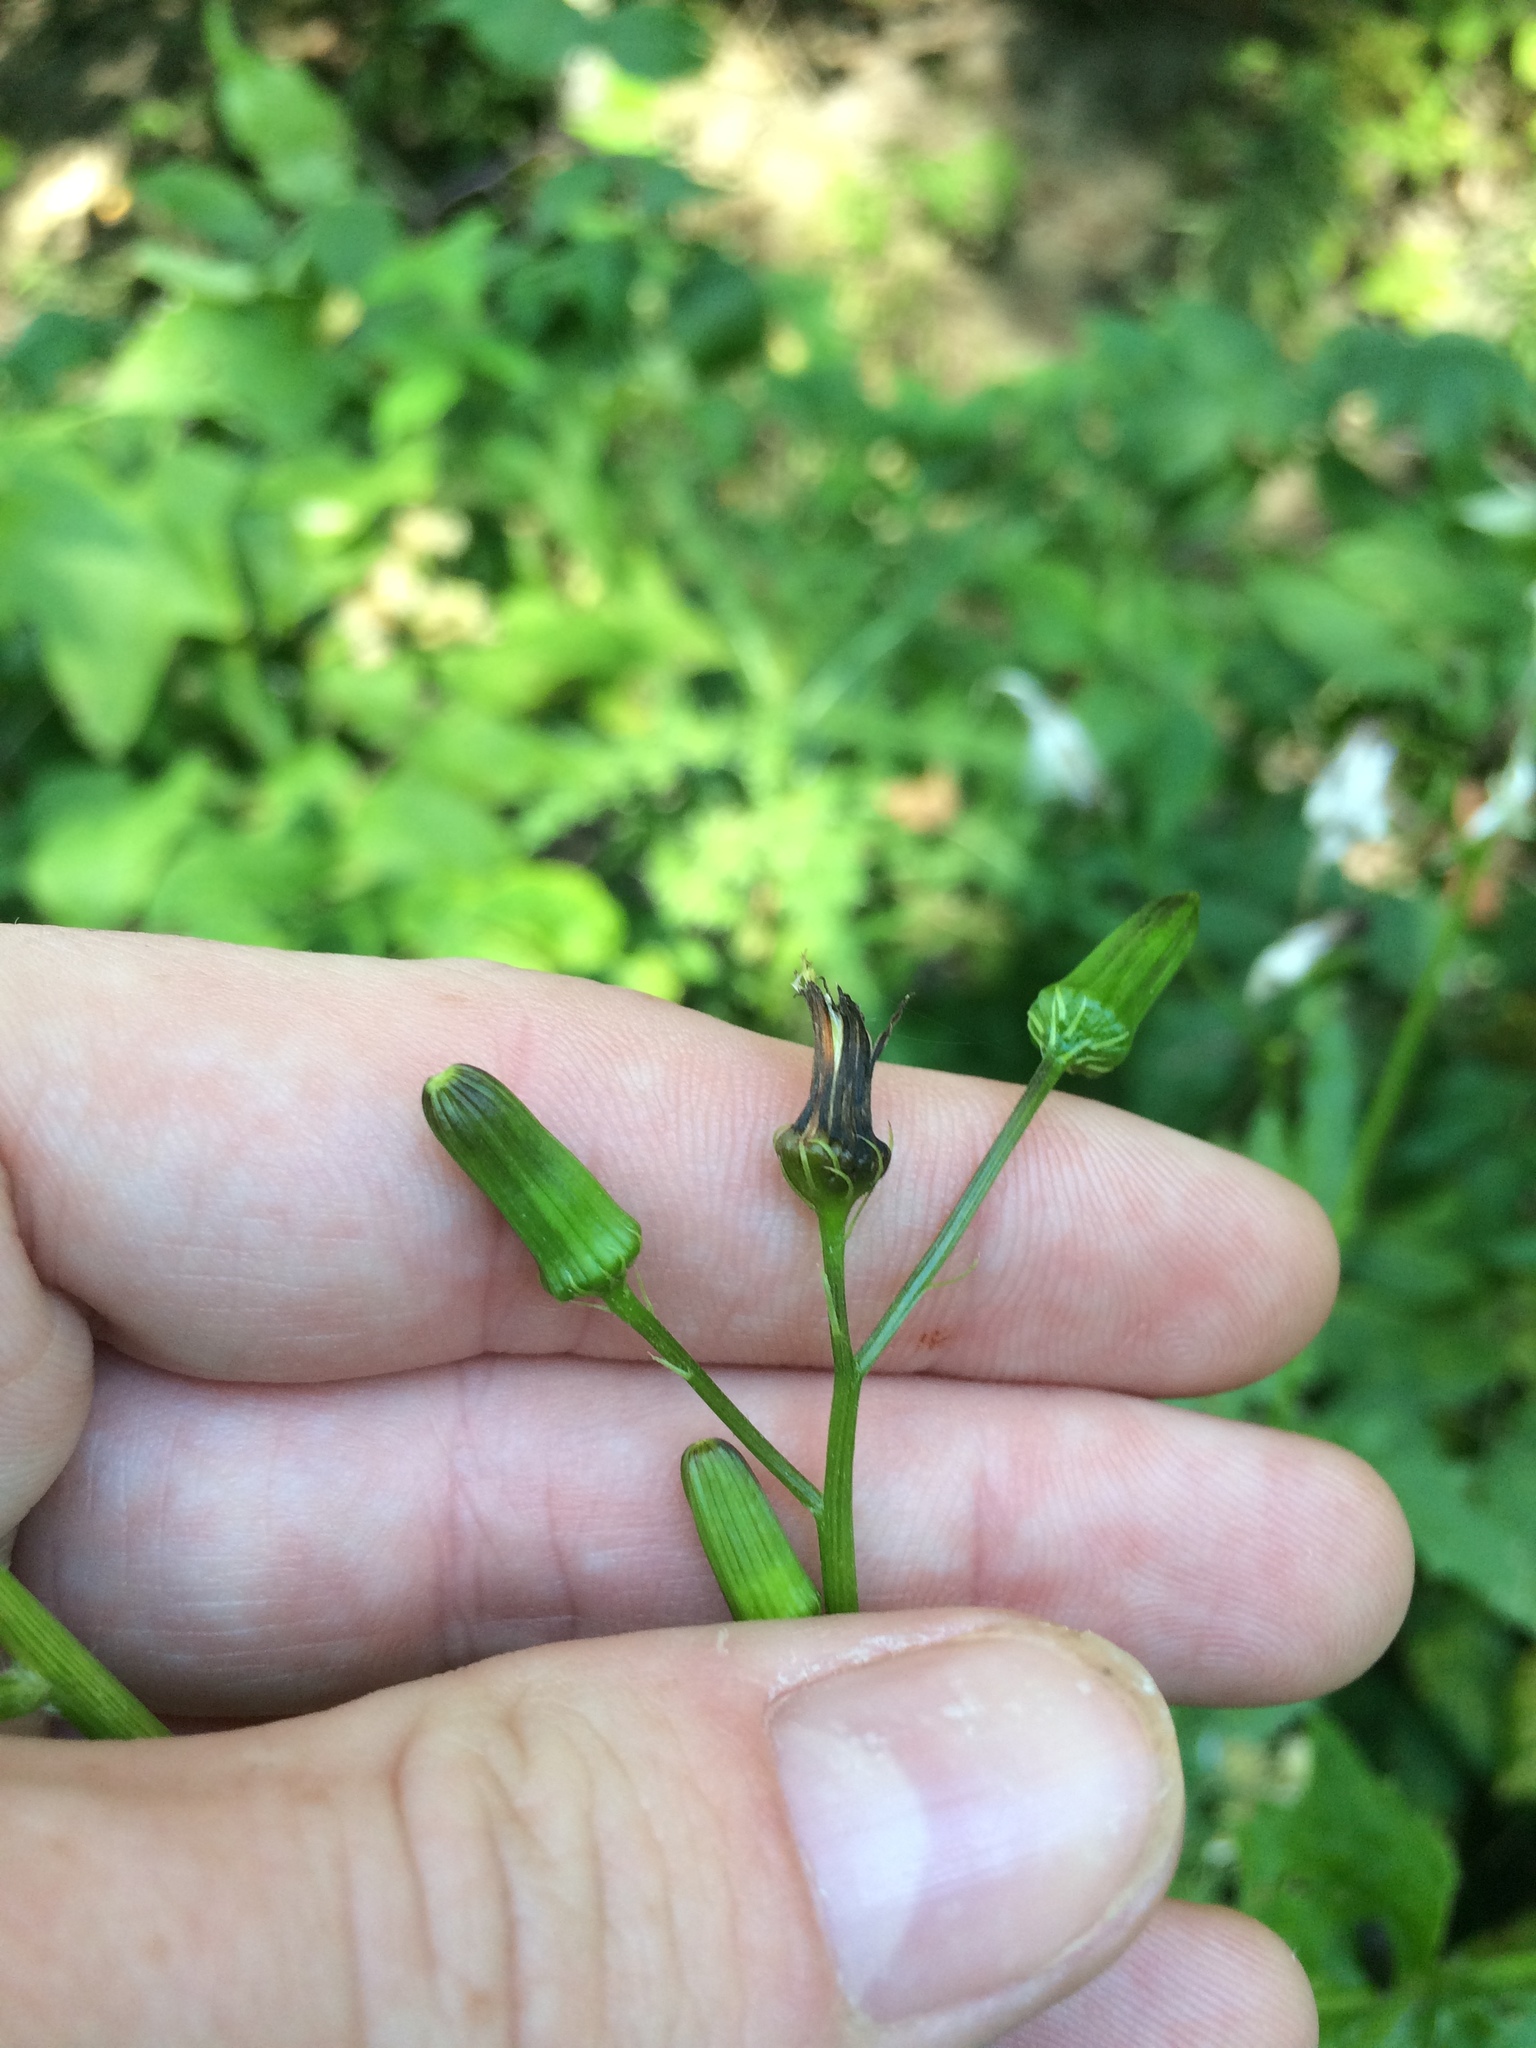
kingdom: Plantae
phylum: Tracheophyta
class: Magnoliopsida
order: Asterales
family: Asteraceae
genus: Erechtites
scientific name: Erechtites hieraciifolius
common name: American burnweed
